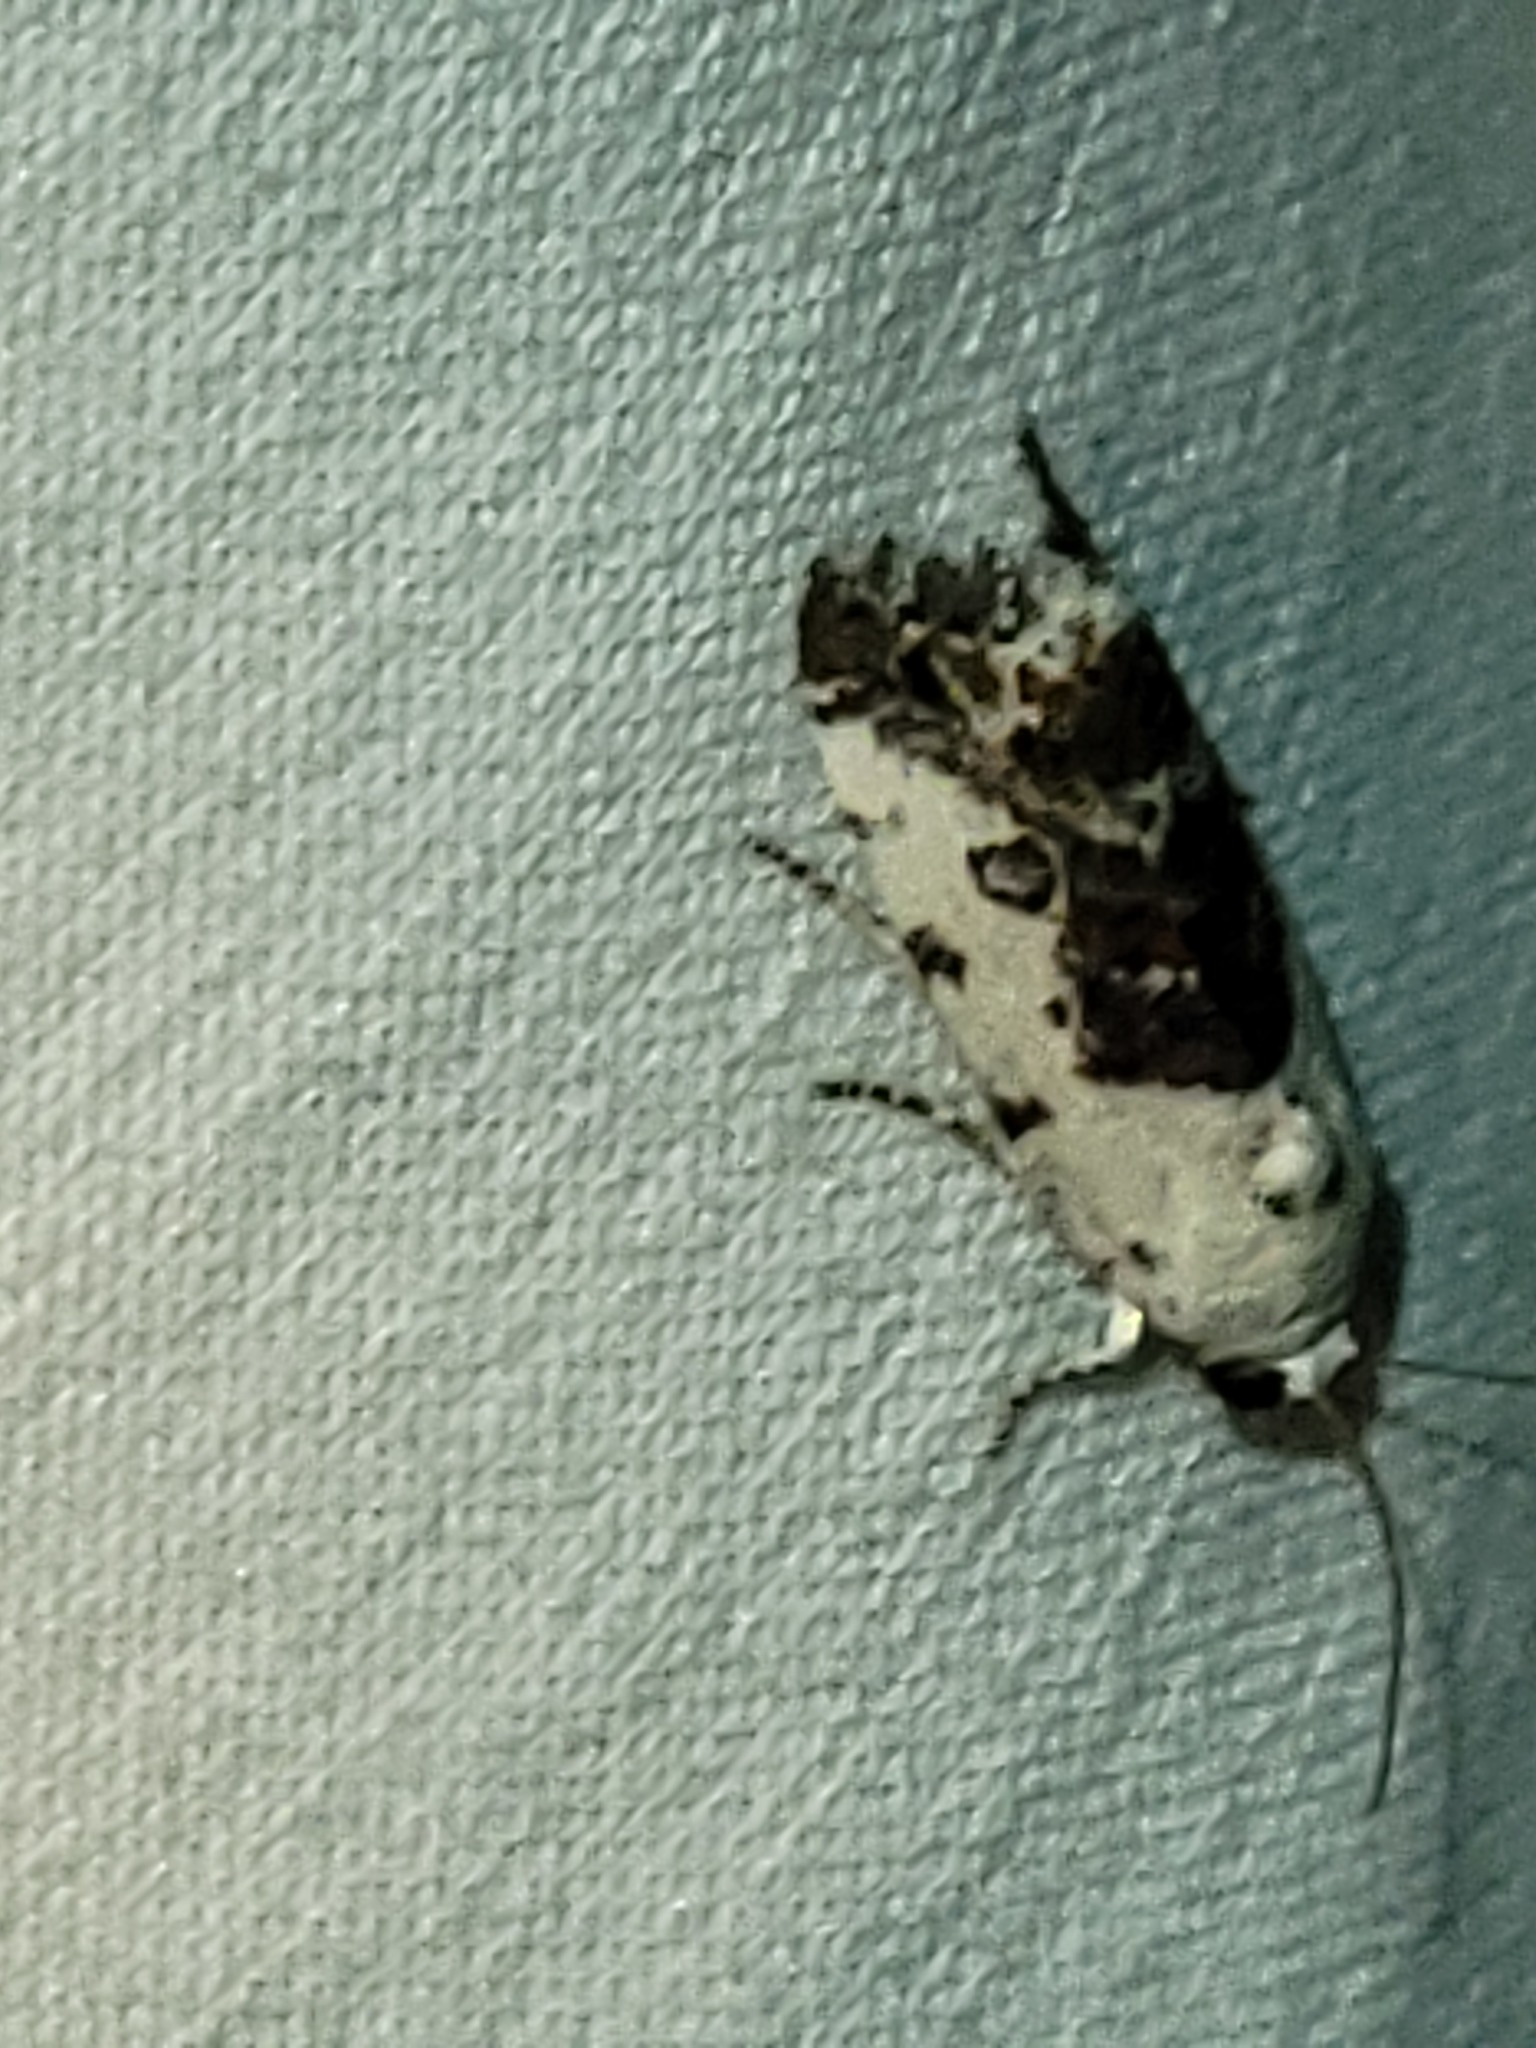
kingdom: Animalia
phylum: Arthropoda
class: Insecta
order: Lepidoptera
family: Noctuidae
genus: Acontia
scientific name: Acontia aprica
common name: Nun
